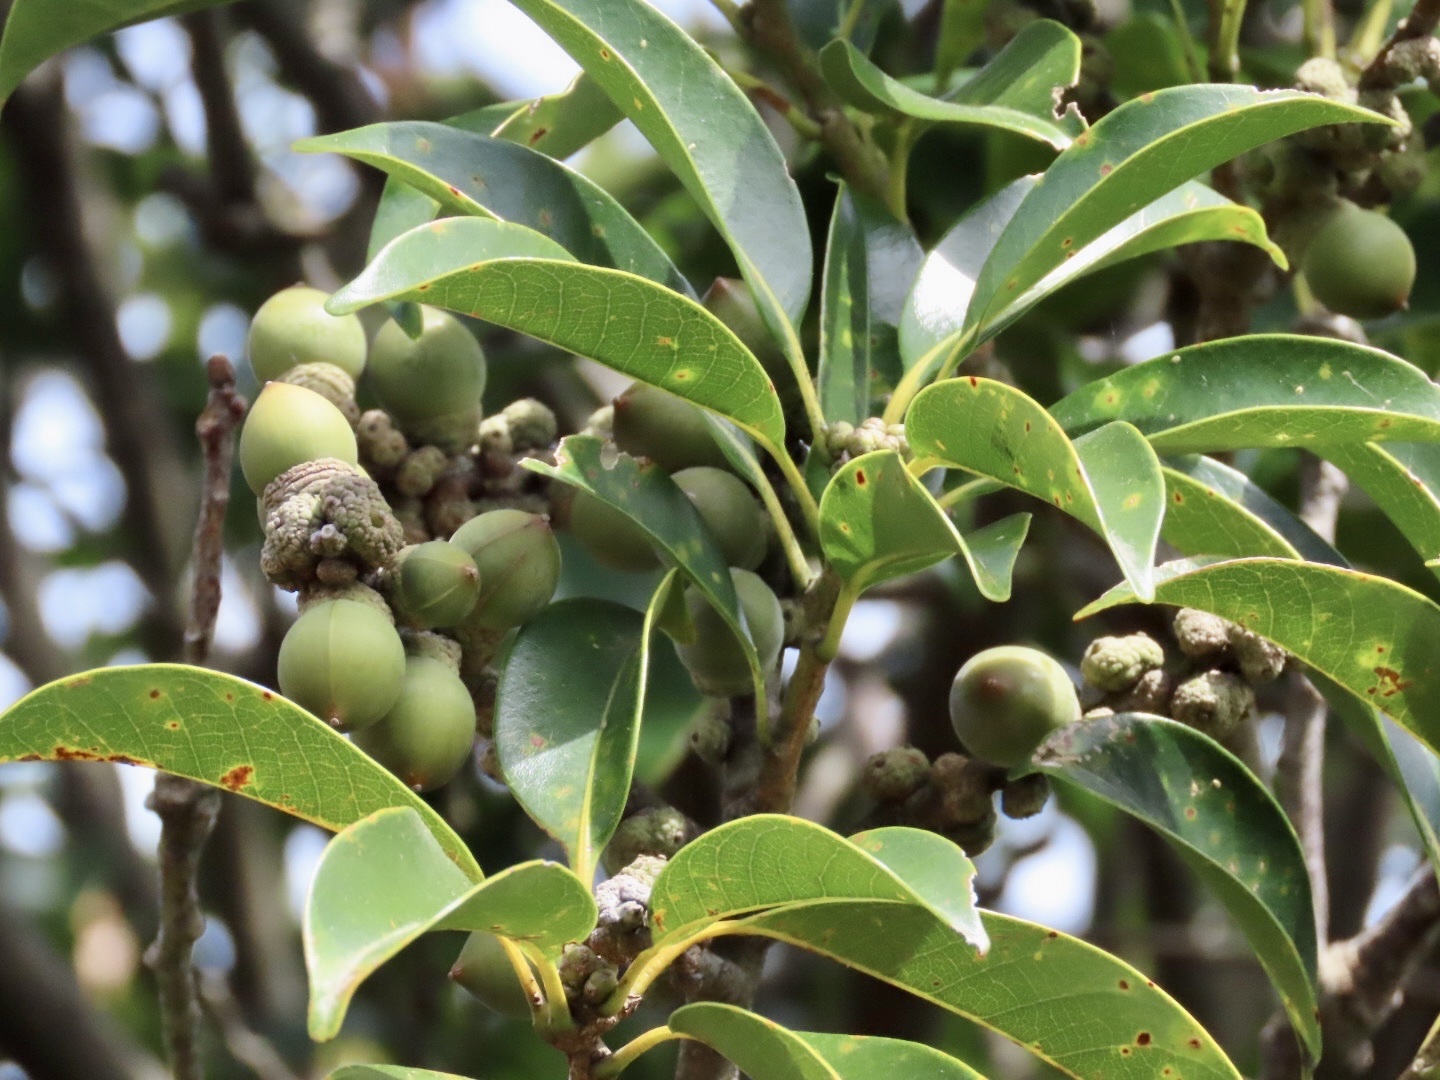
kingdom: Plantae
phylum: Tracheophyta
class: Magnoliopsida
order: Fagales
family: Fagaceae
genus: Lithocarpus
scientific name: Lithocarpus glaber
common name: Japanese-oak
